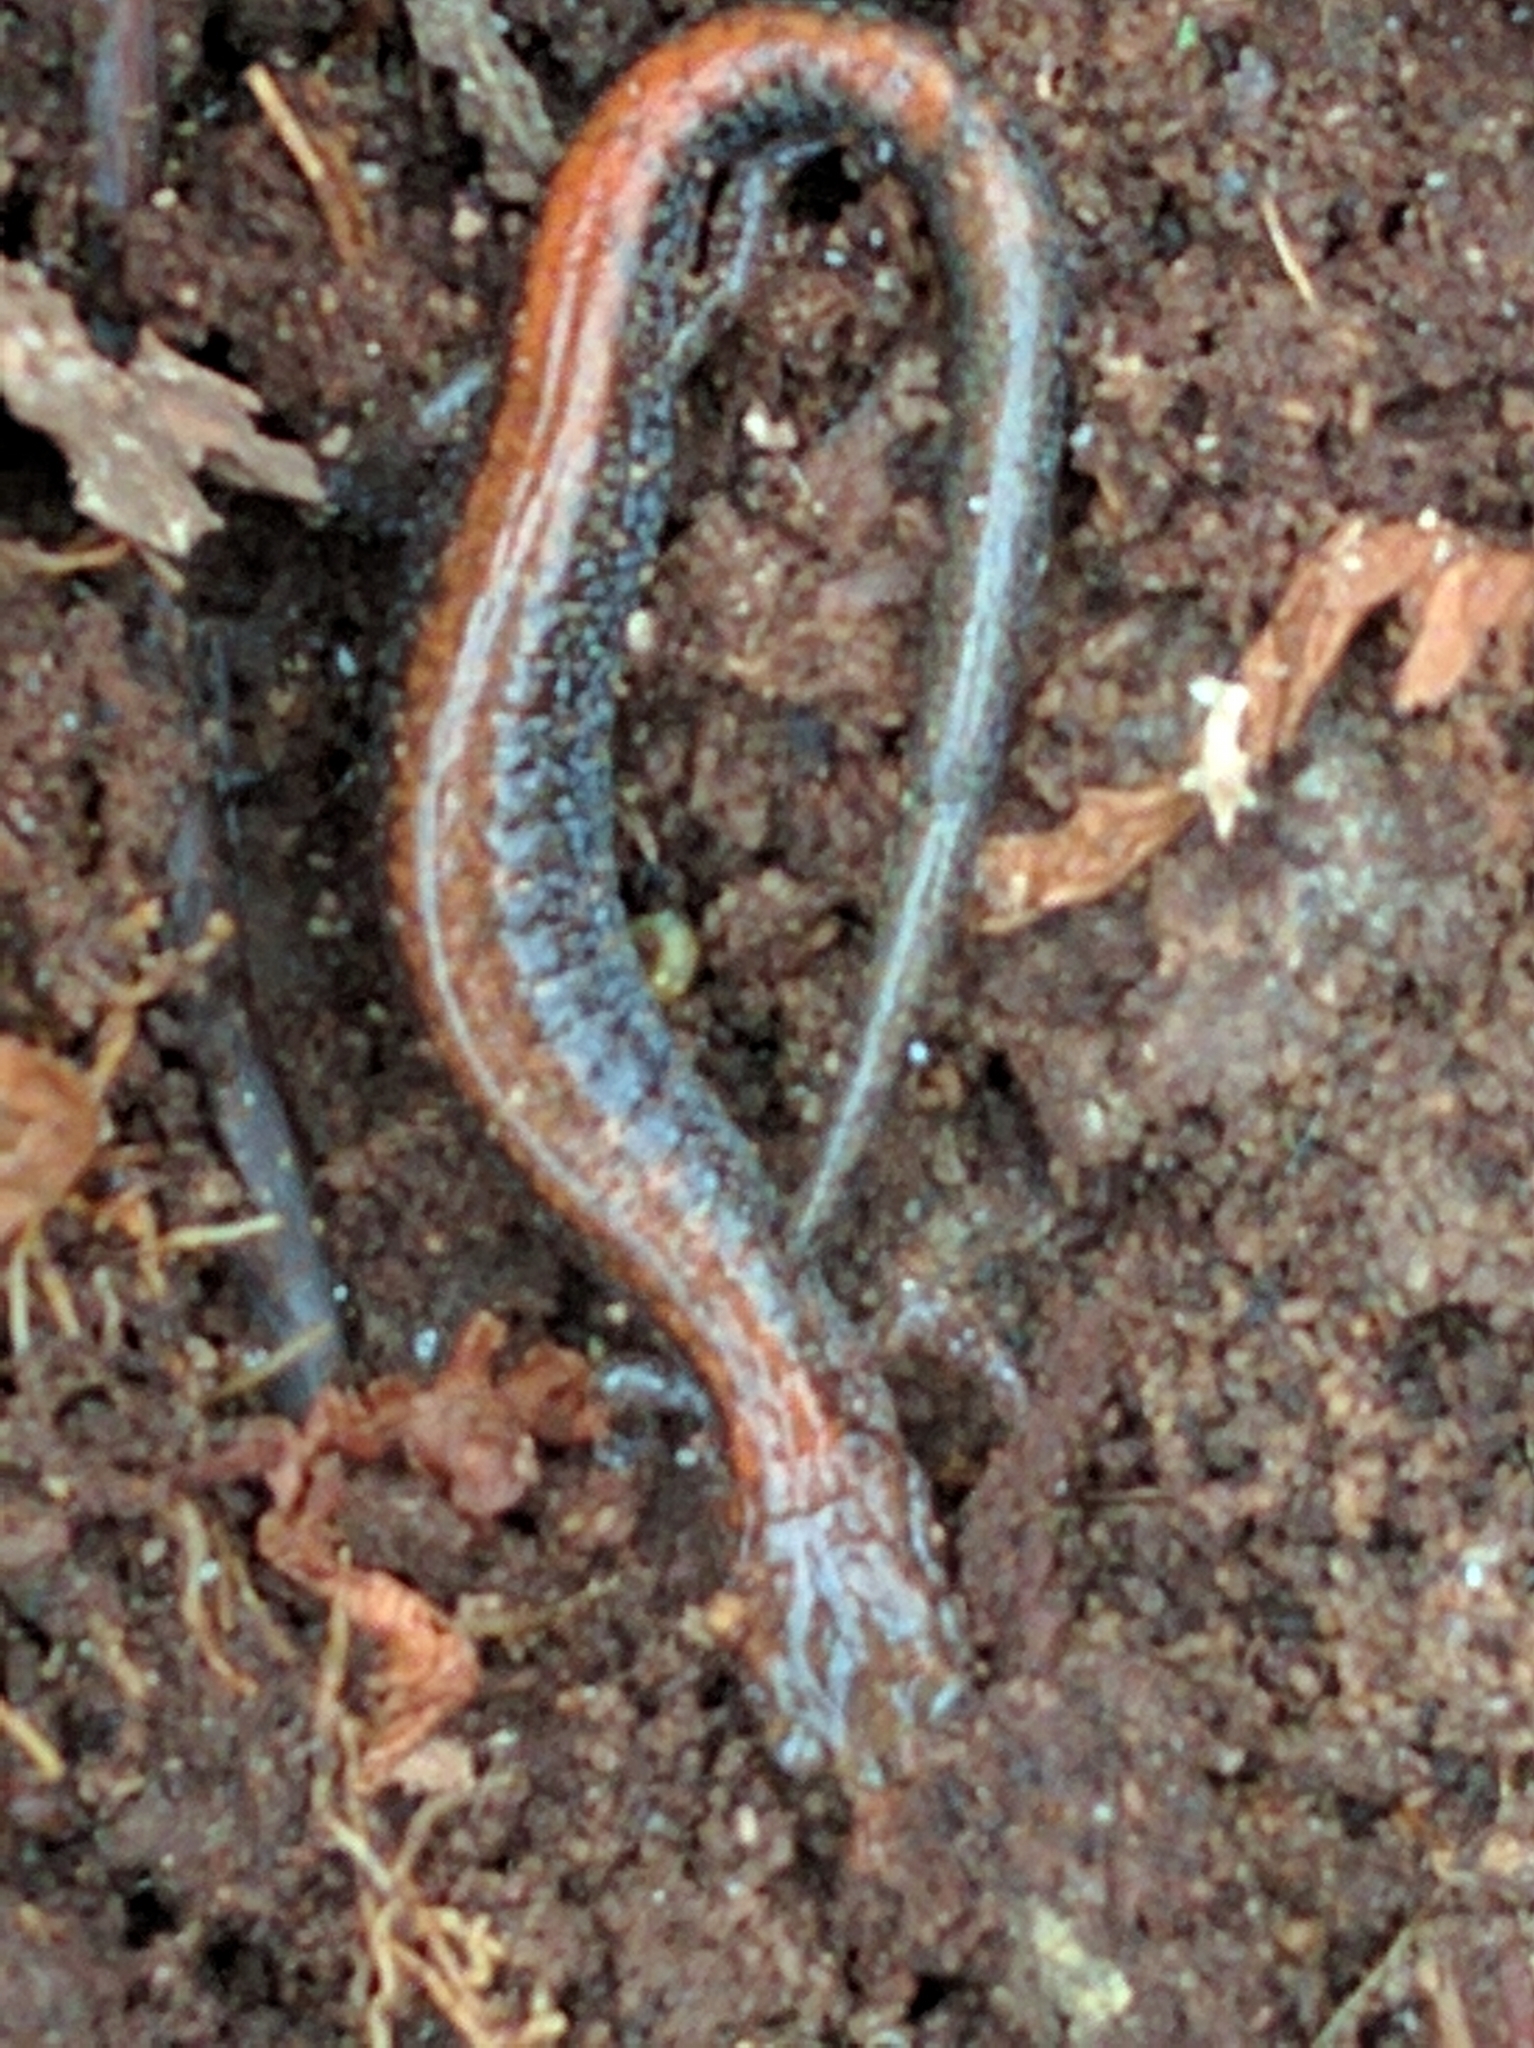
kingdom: Animalia
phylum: Chordata
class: Amphibia
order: Caudata
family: Plethodontidae
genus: Plethodon
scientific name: Plethodon cinereus
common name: Redback salamander
